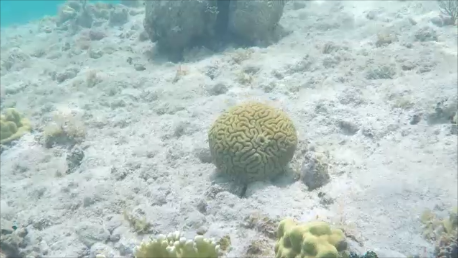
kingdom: Animalia
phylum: Cnidaria
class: Anthozoa
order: Scleractinia
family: Faviidae
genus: Colpophyllia
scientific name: Colpophyllia natans
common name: Boulder brain coral
